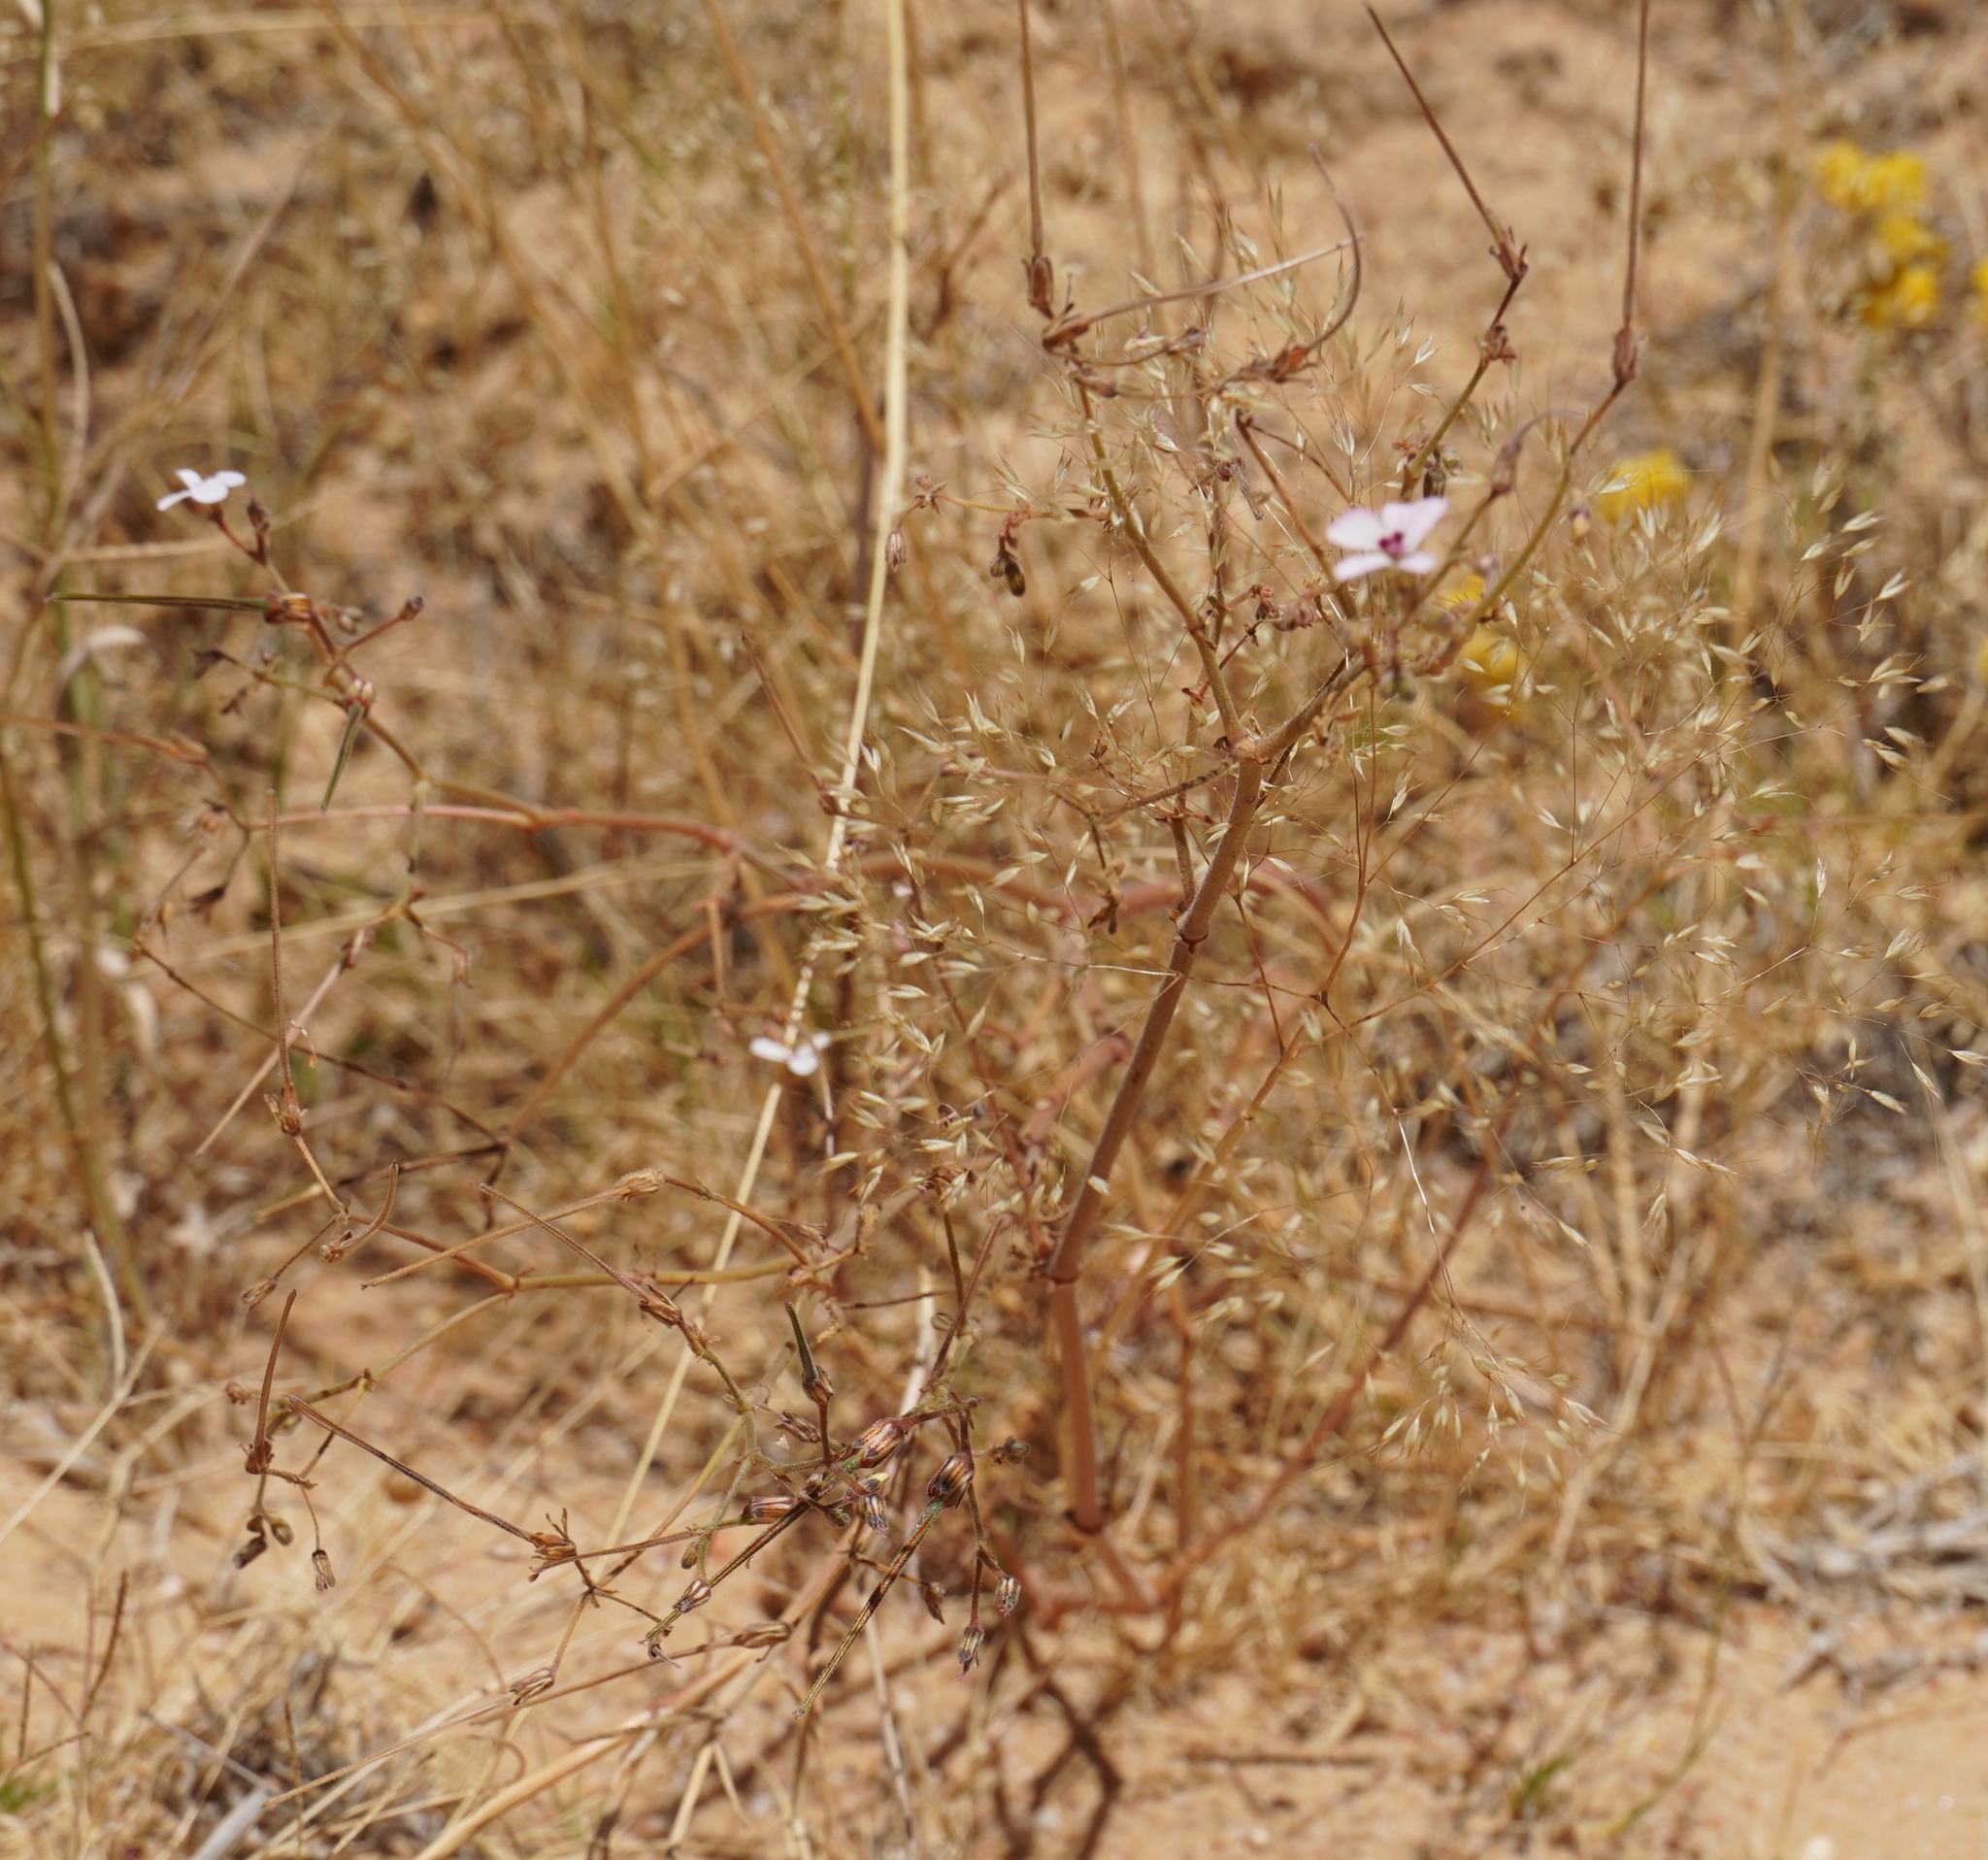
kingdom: Plantae
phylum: Tracheophyta
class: Magnoliopsida
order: Geraniales
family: Geraniaceae
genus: Pelargonium
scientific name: Pelargonium senecioides
